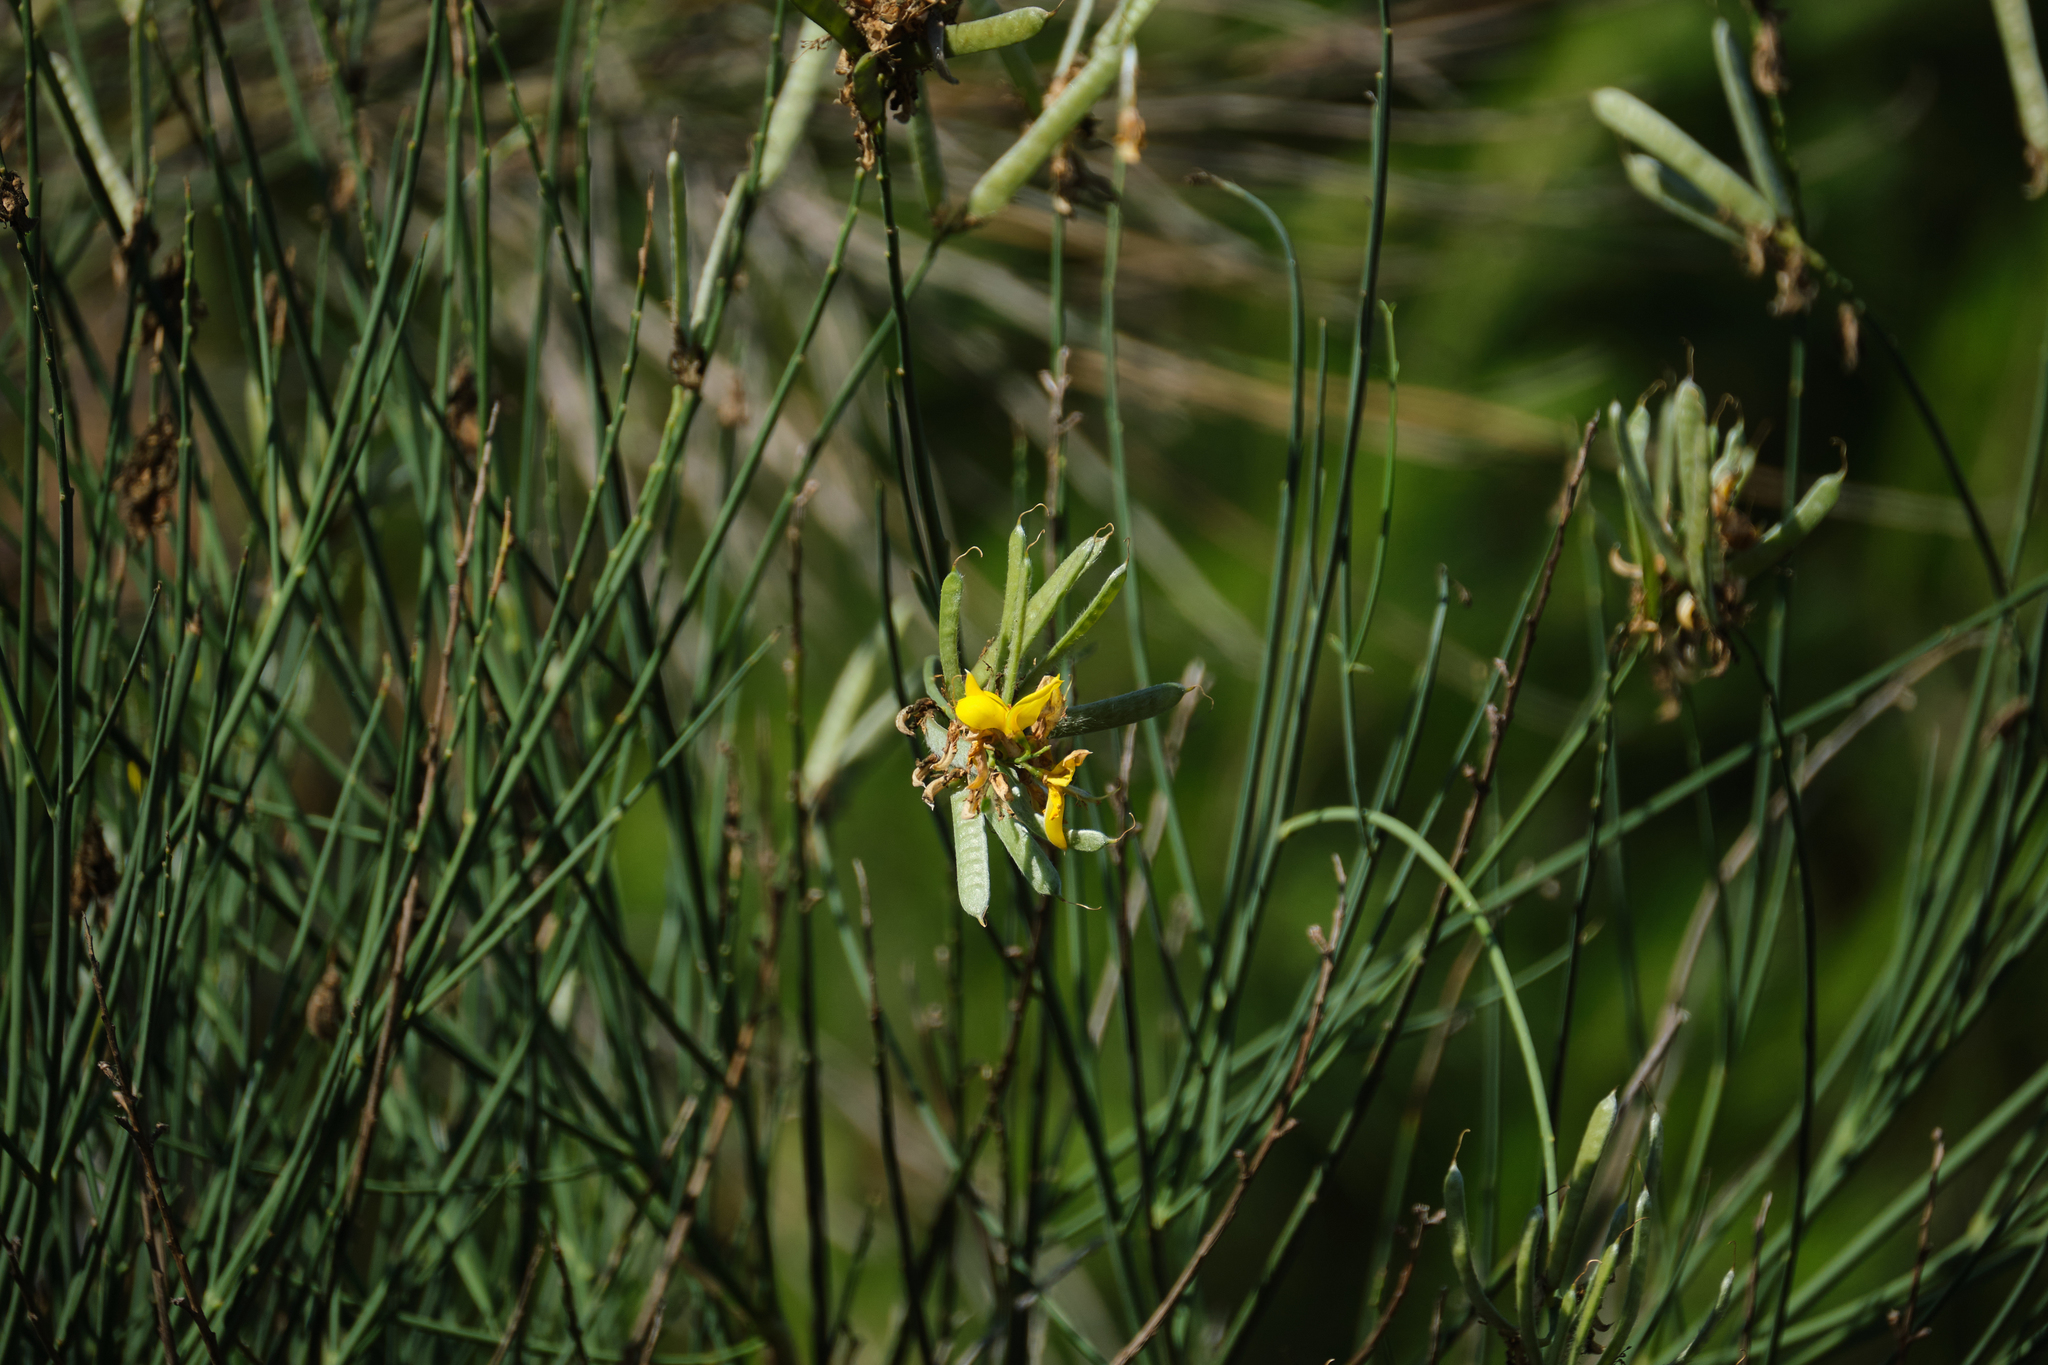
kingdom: Plantae
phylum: Tracheophyta
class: Magnoliopsida
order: Fabales
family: Fabaceae
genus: Spartium
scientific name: Spartium junceum
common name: Spanish broom
